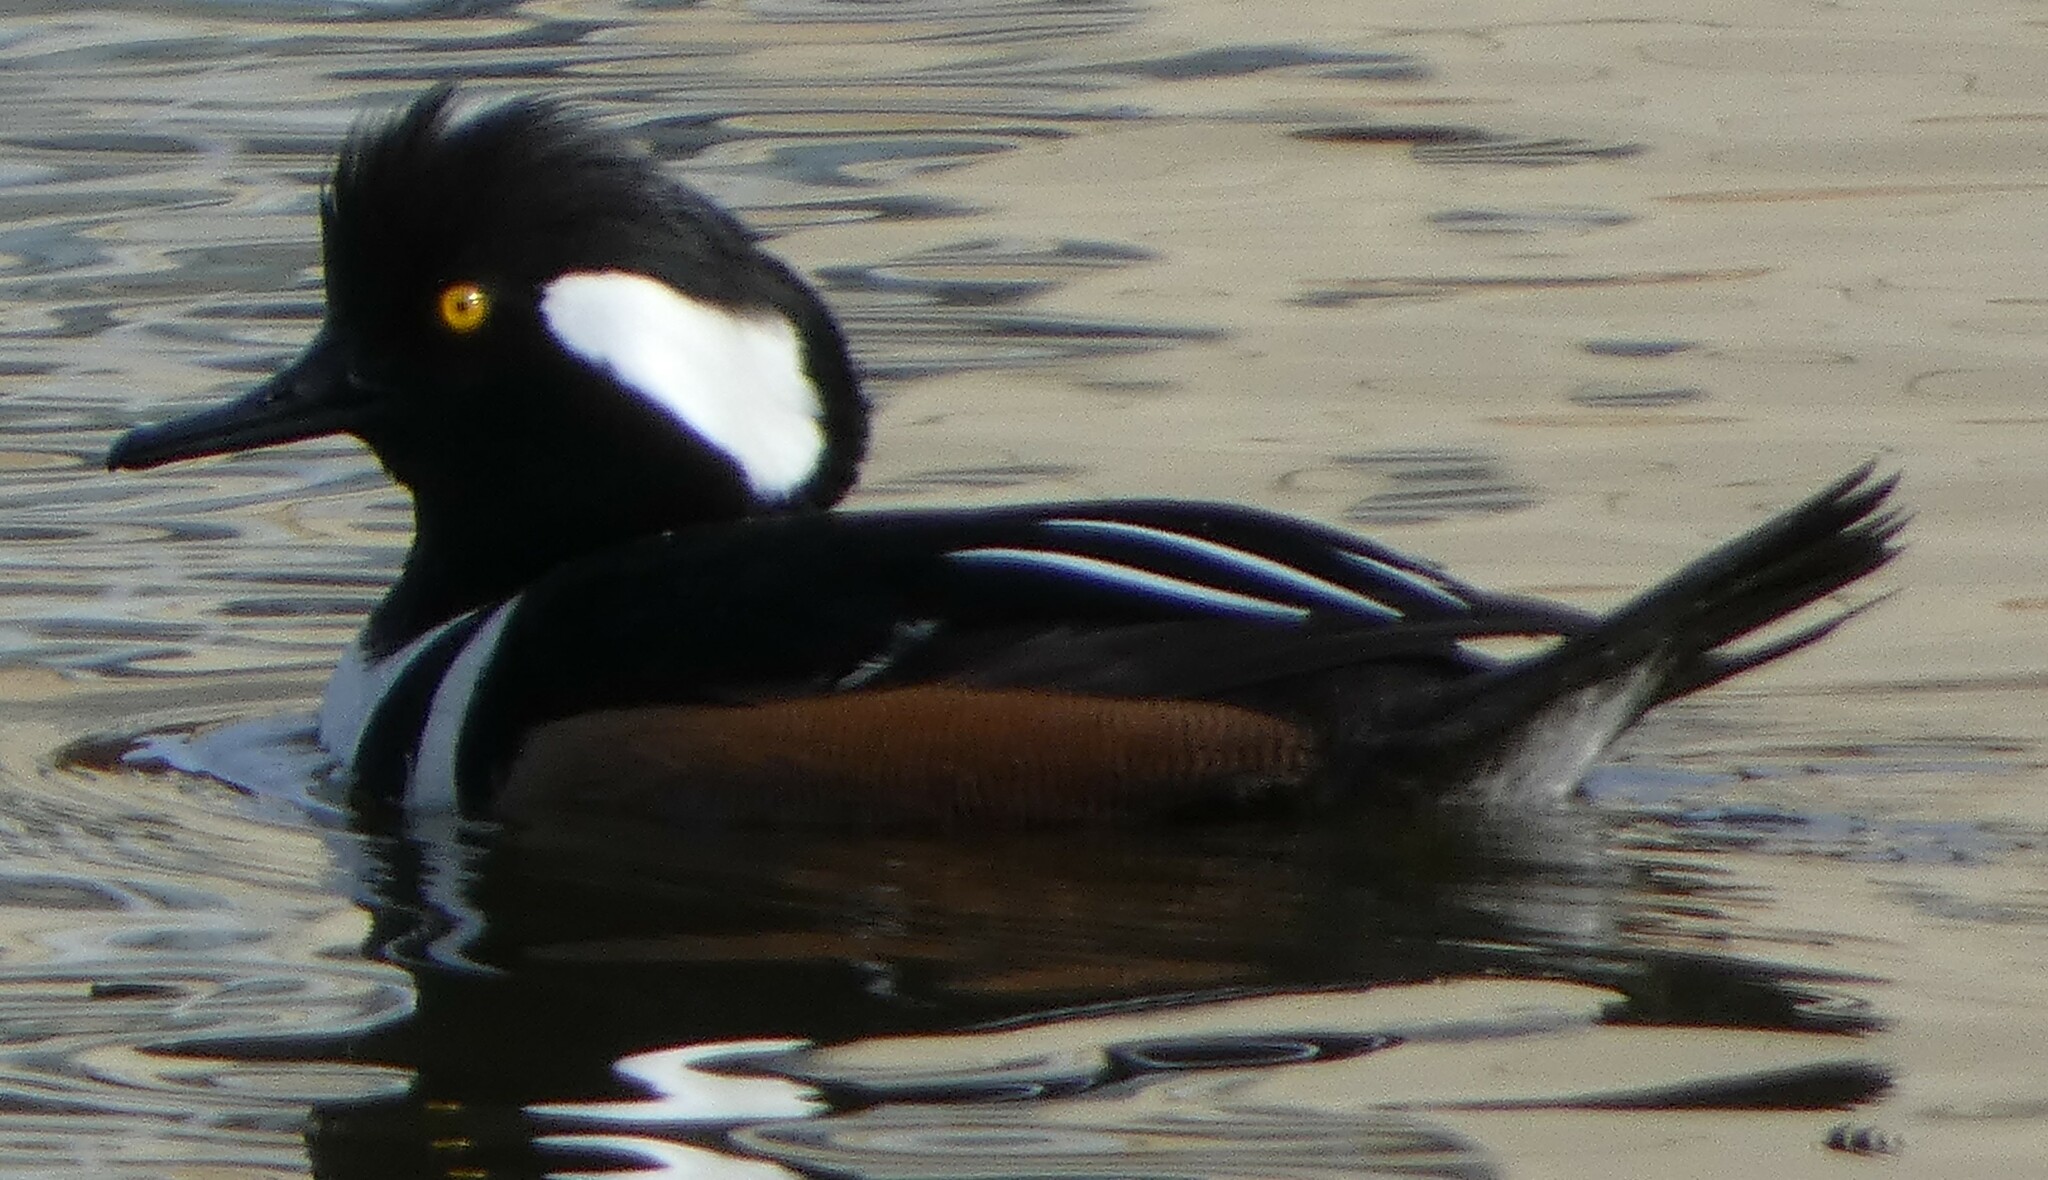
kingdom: Animalia
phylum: Chordata
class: Aves
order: Anseriformes
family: Anatidae
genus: Lophodytes
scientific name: Lophodytes cucullatus
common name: Hooded merganser
